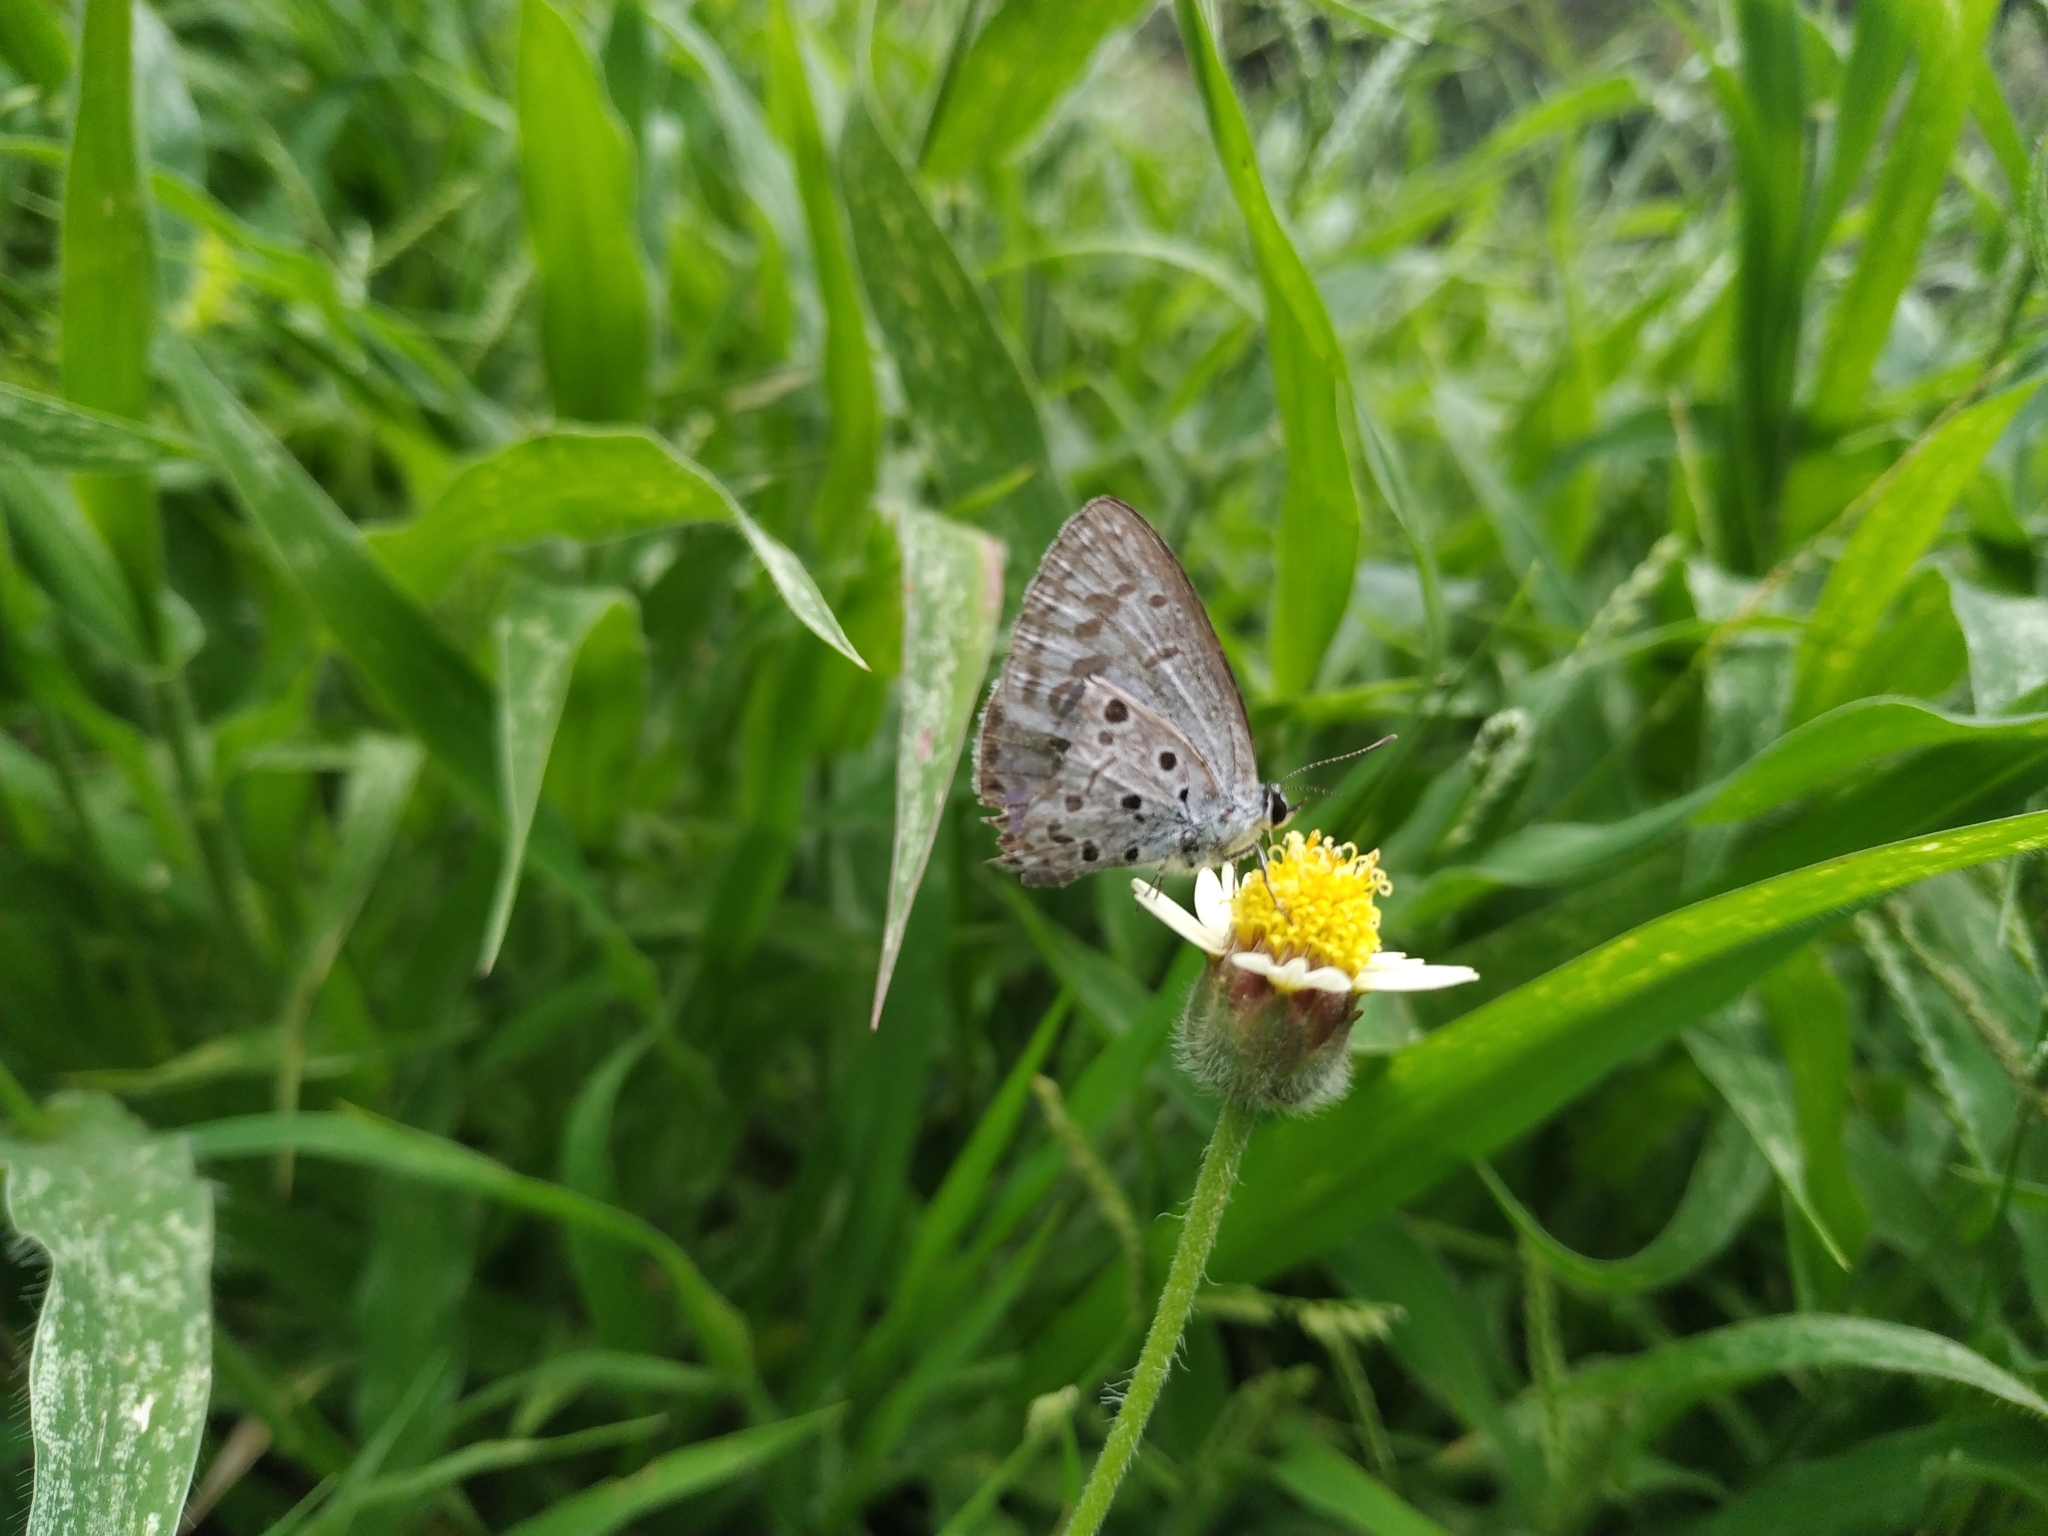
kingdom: Animalia
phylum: Arthropoda
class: Insecta
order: Lepidoptera
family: Lycaenidae
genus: Acytolepis
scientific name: Acytolepis puspa
